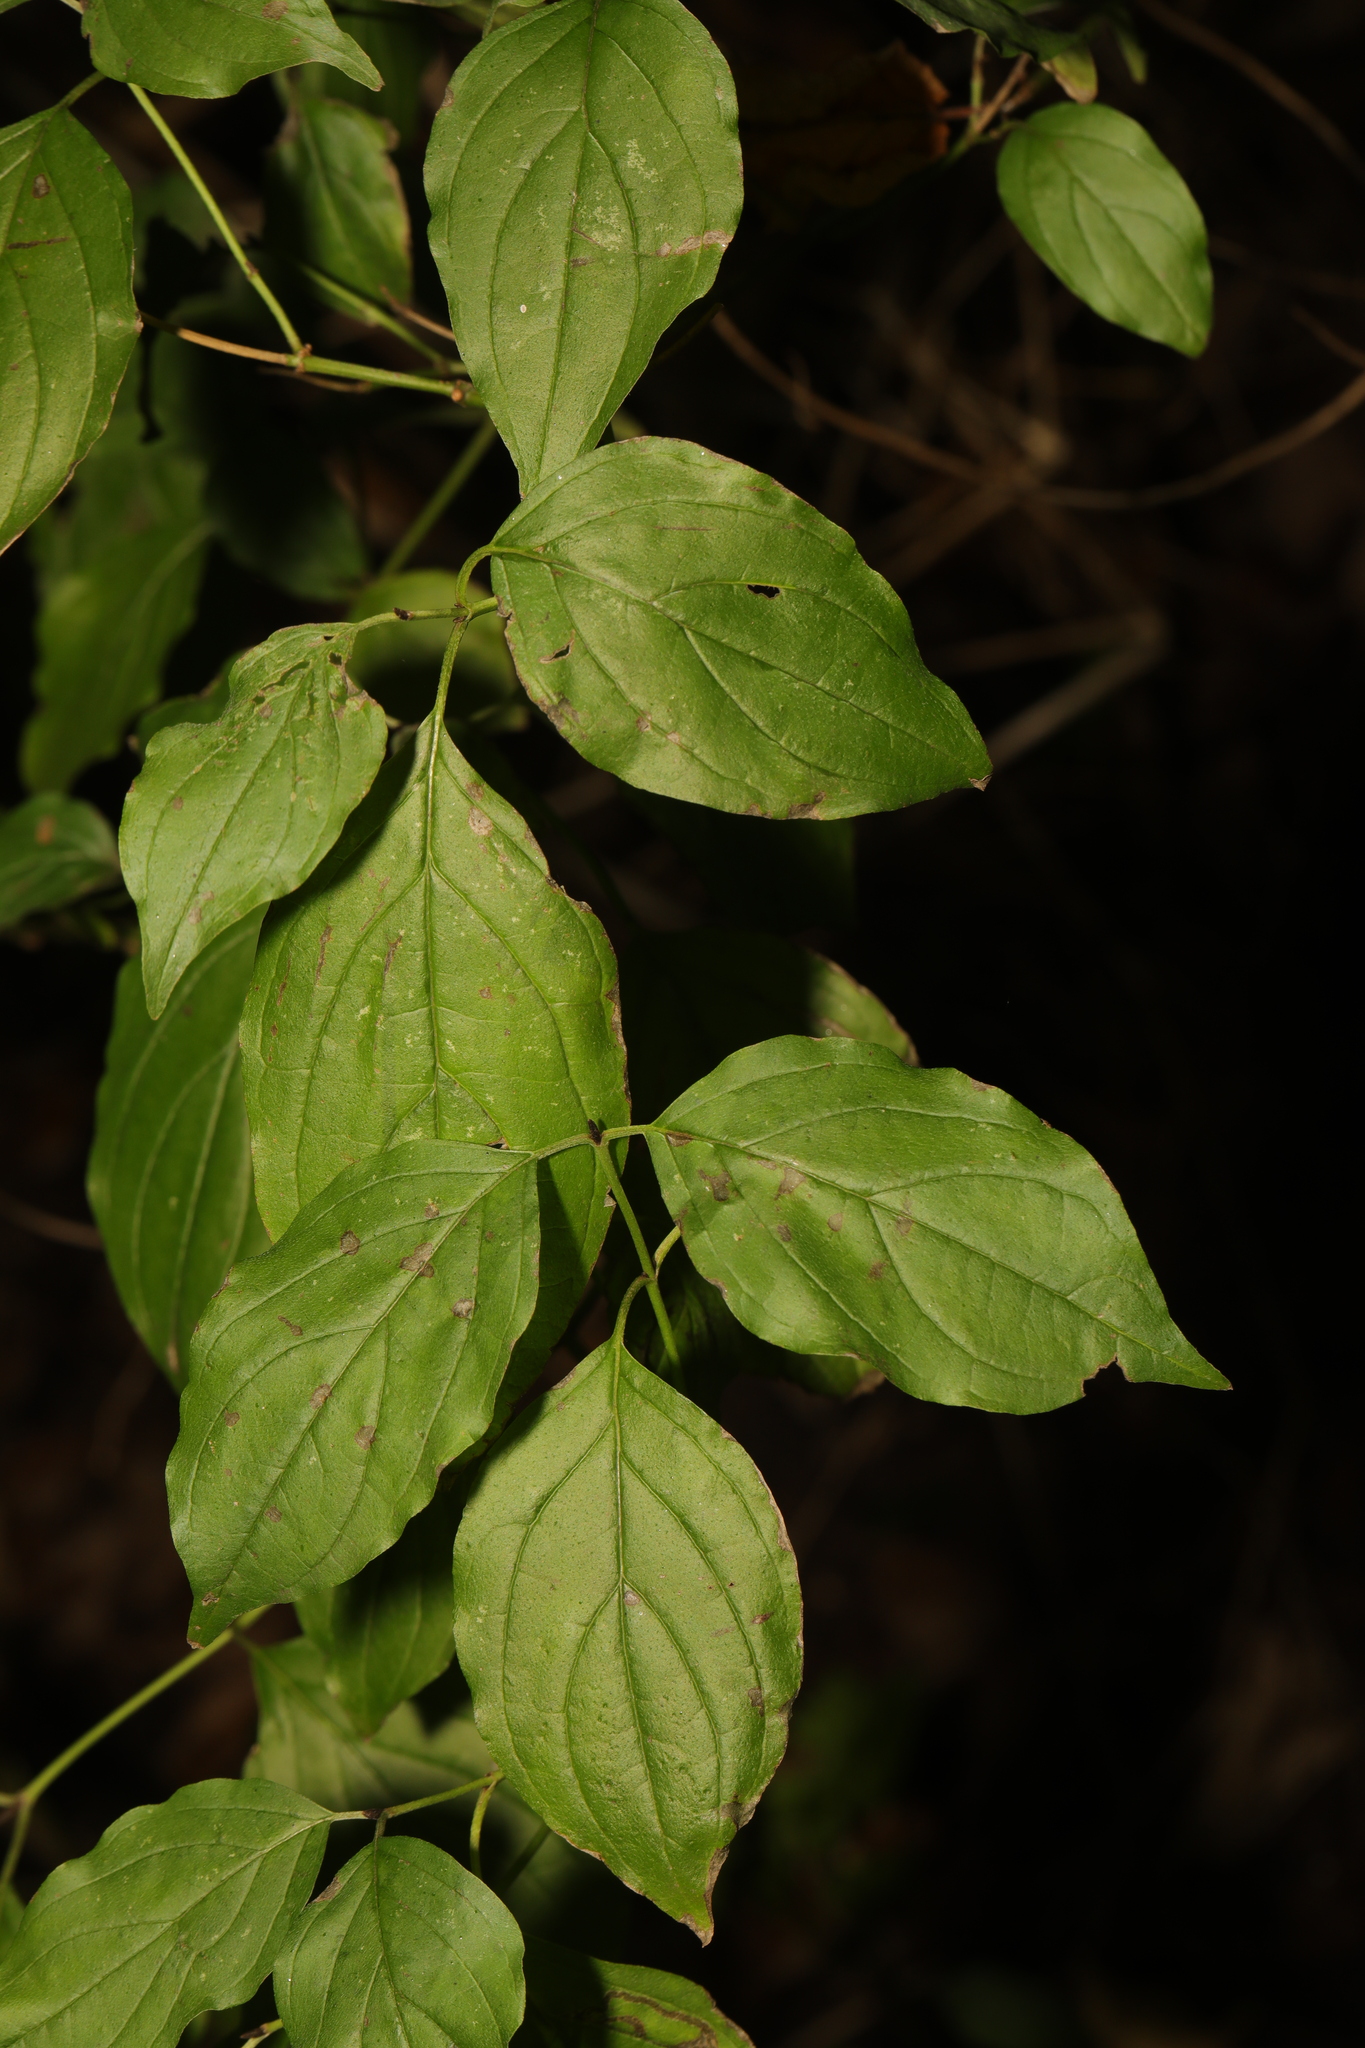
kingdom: Plantae
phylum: Tracheophyta
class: Magnoliopsida
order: Cornales
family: Cornaceae
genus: Cornus
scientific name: Cornus sanguinea
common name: Dogwood
